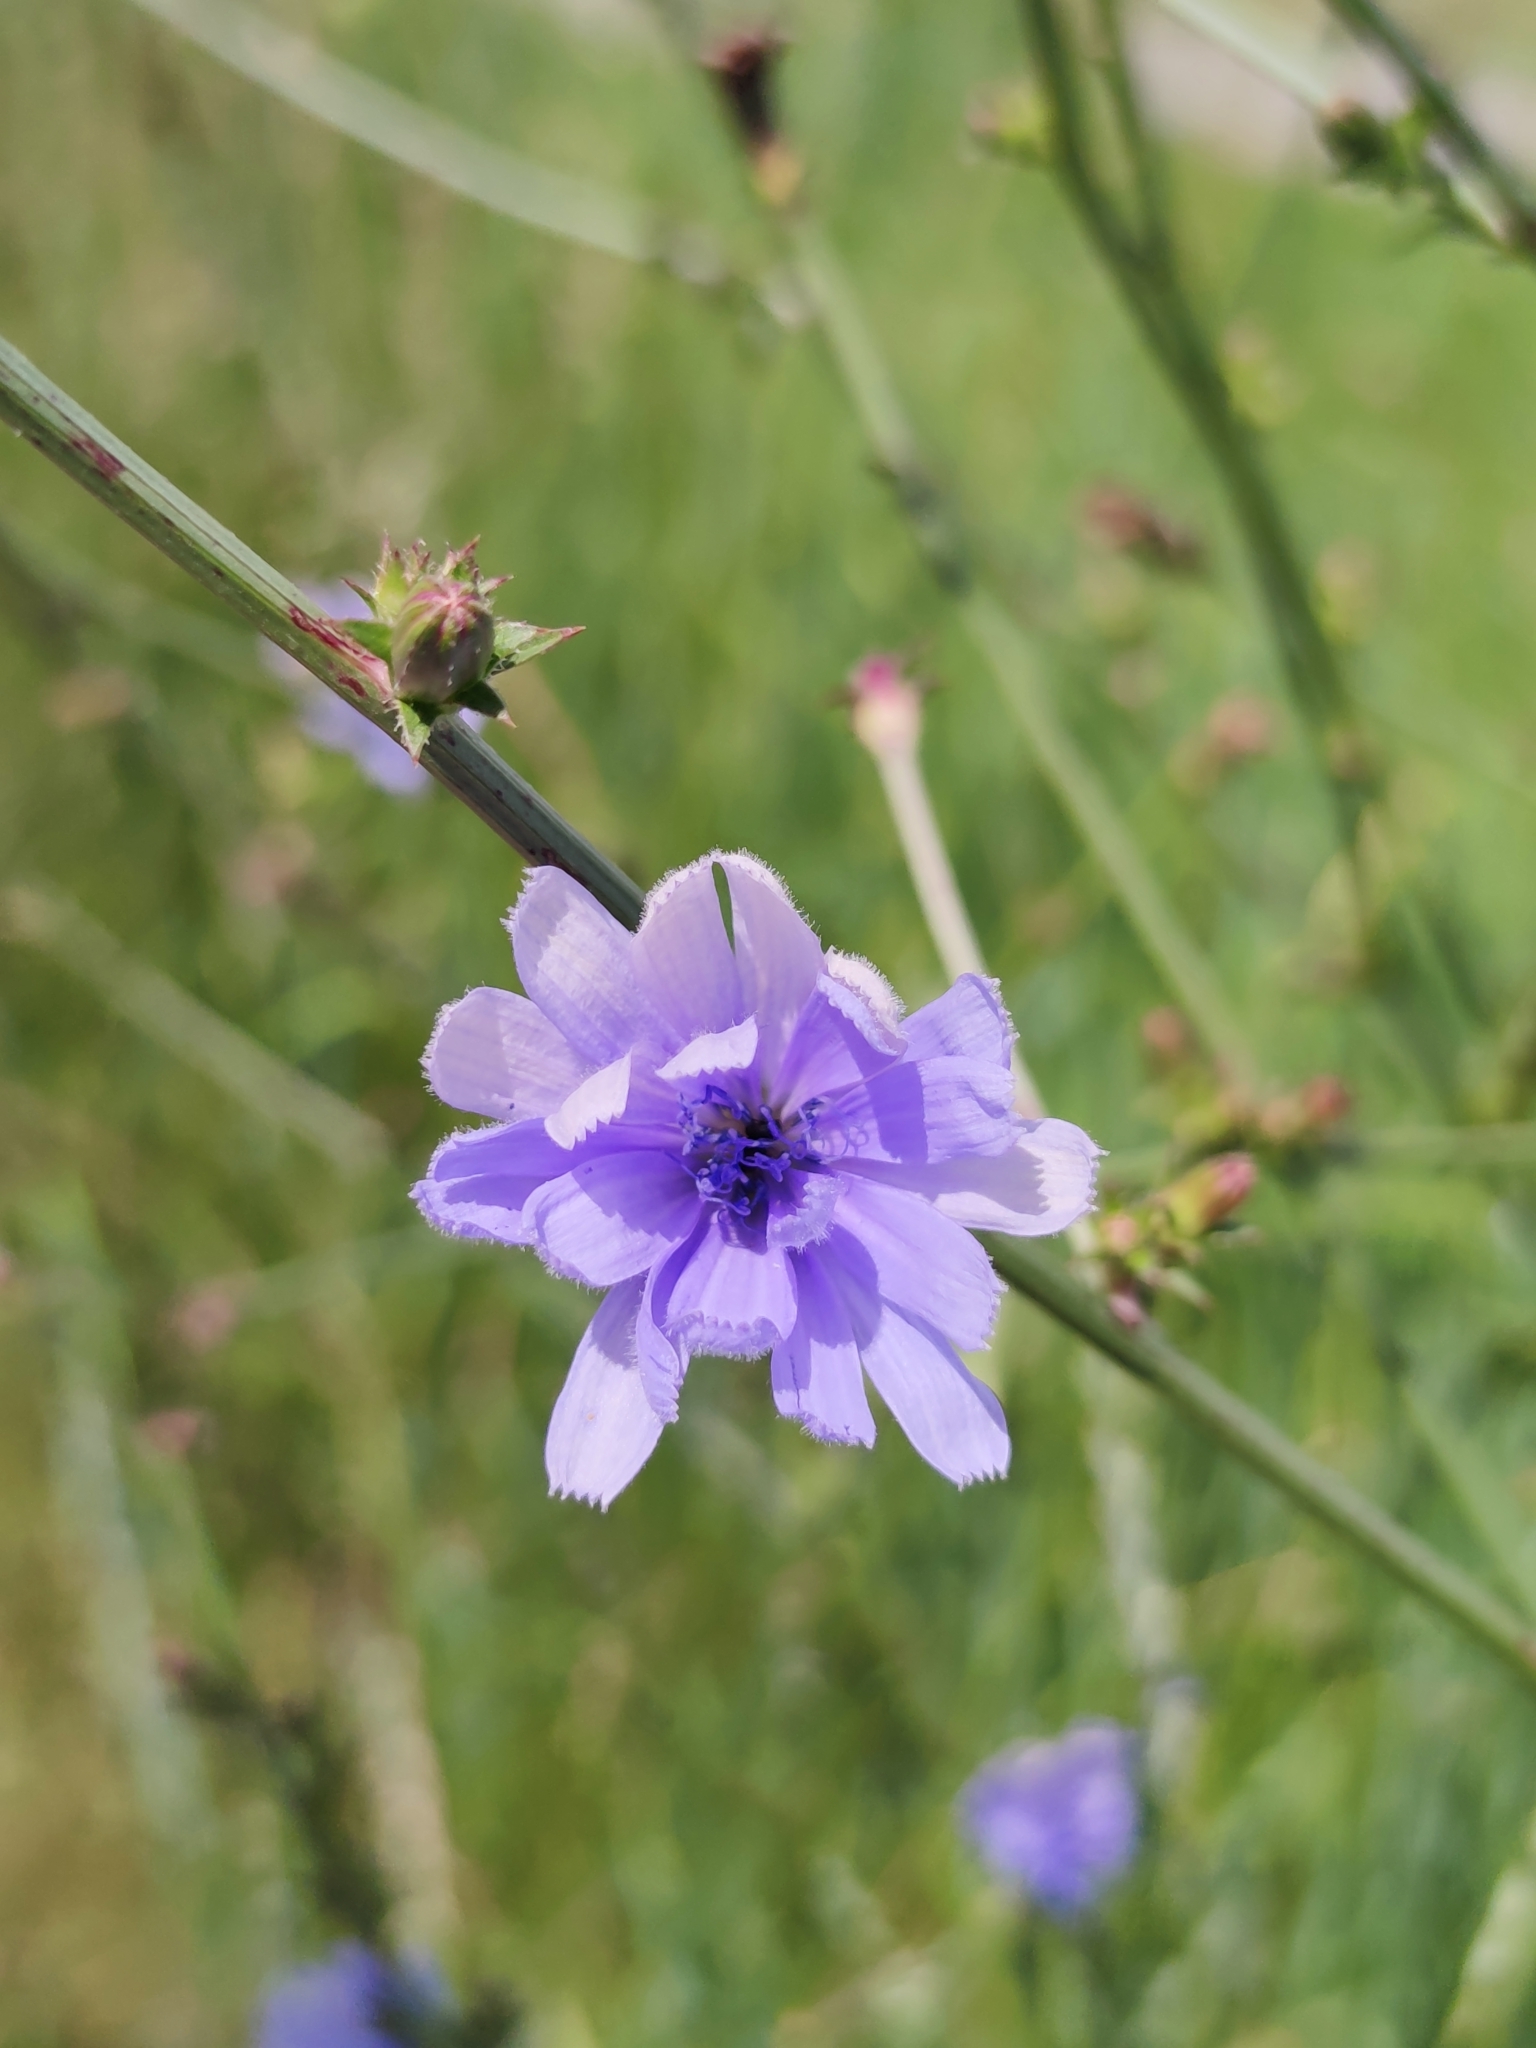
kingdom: Plantae
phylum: Tracheophyta
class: Magnoliopsida
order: Asterales
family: Asteraceae
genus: Cichorium
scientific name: Cichorium intybus
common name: Chicory
